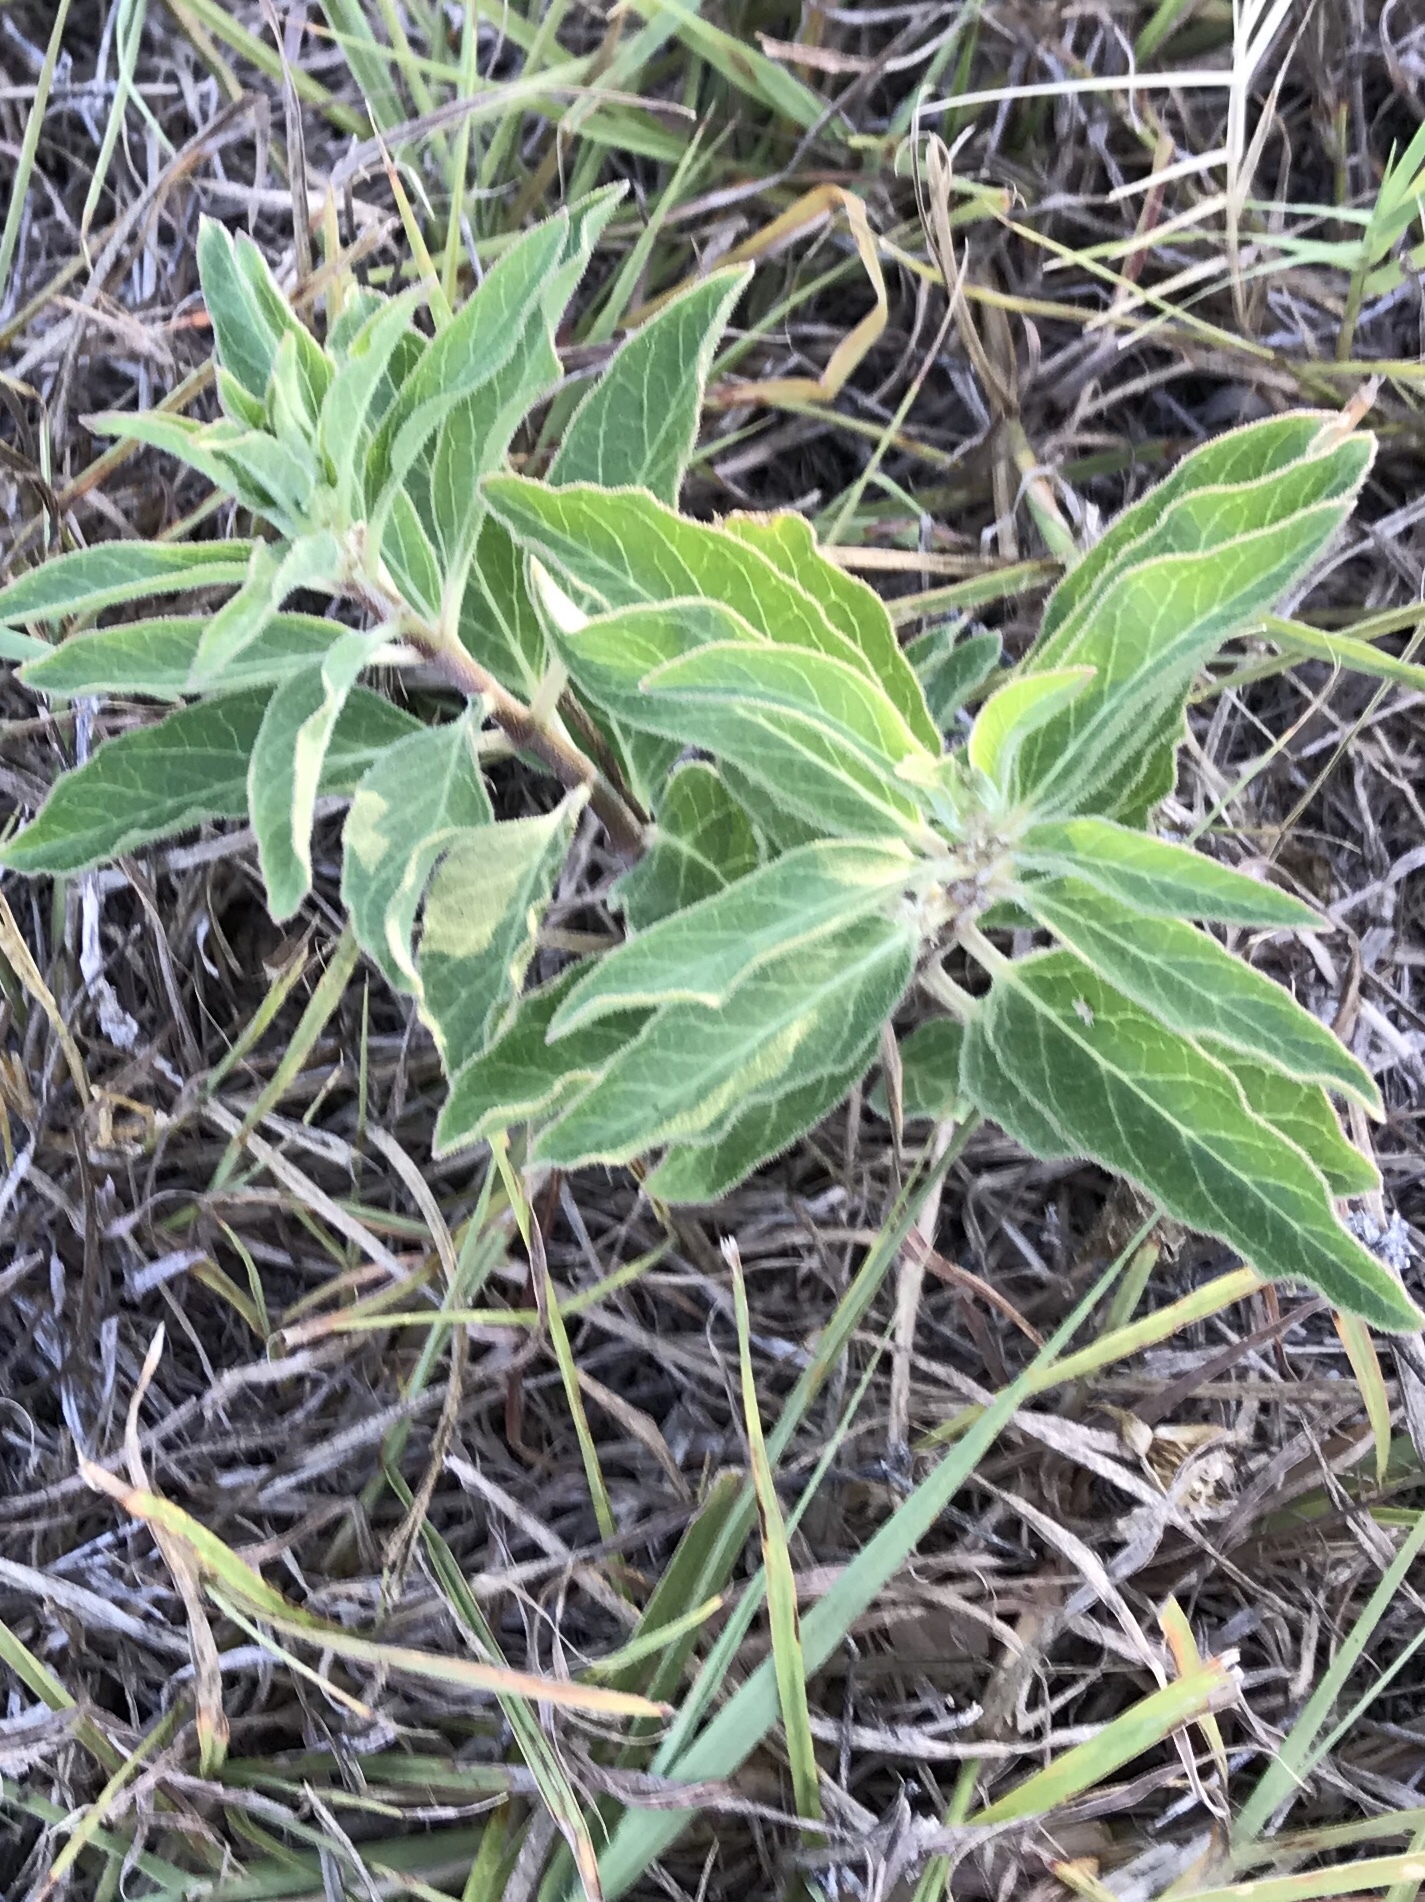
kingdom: Plantae
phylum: Tracheophyta
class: Magnoliopsida
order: Gentianales
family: Apocynaceae
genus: Asclepias
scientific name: Asclepias oenotheroides
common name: Zizotes milkweed
